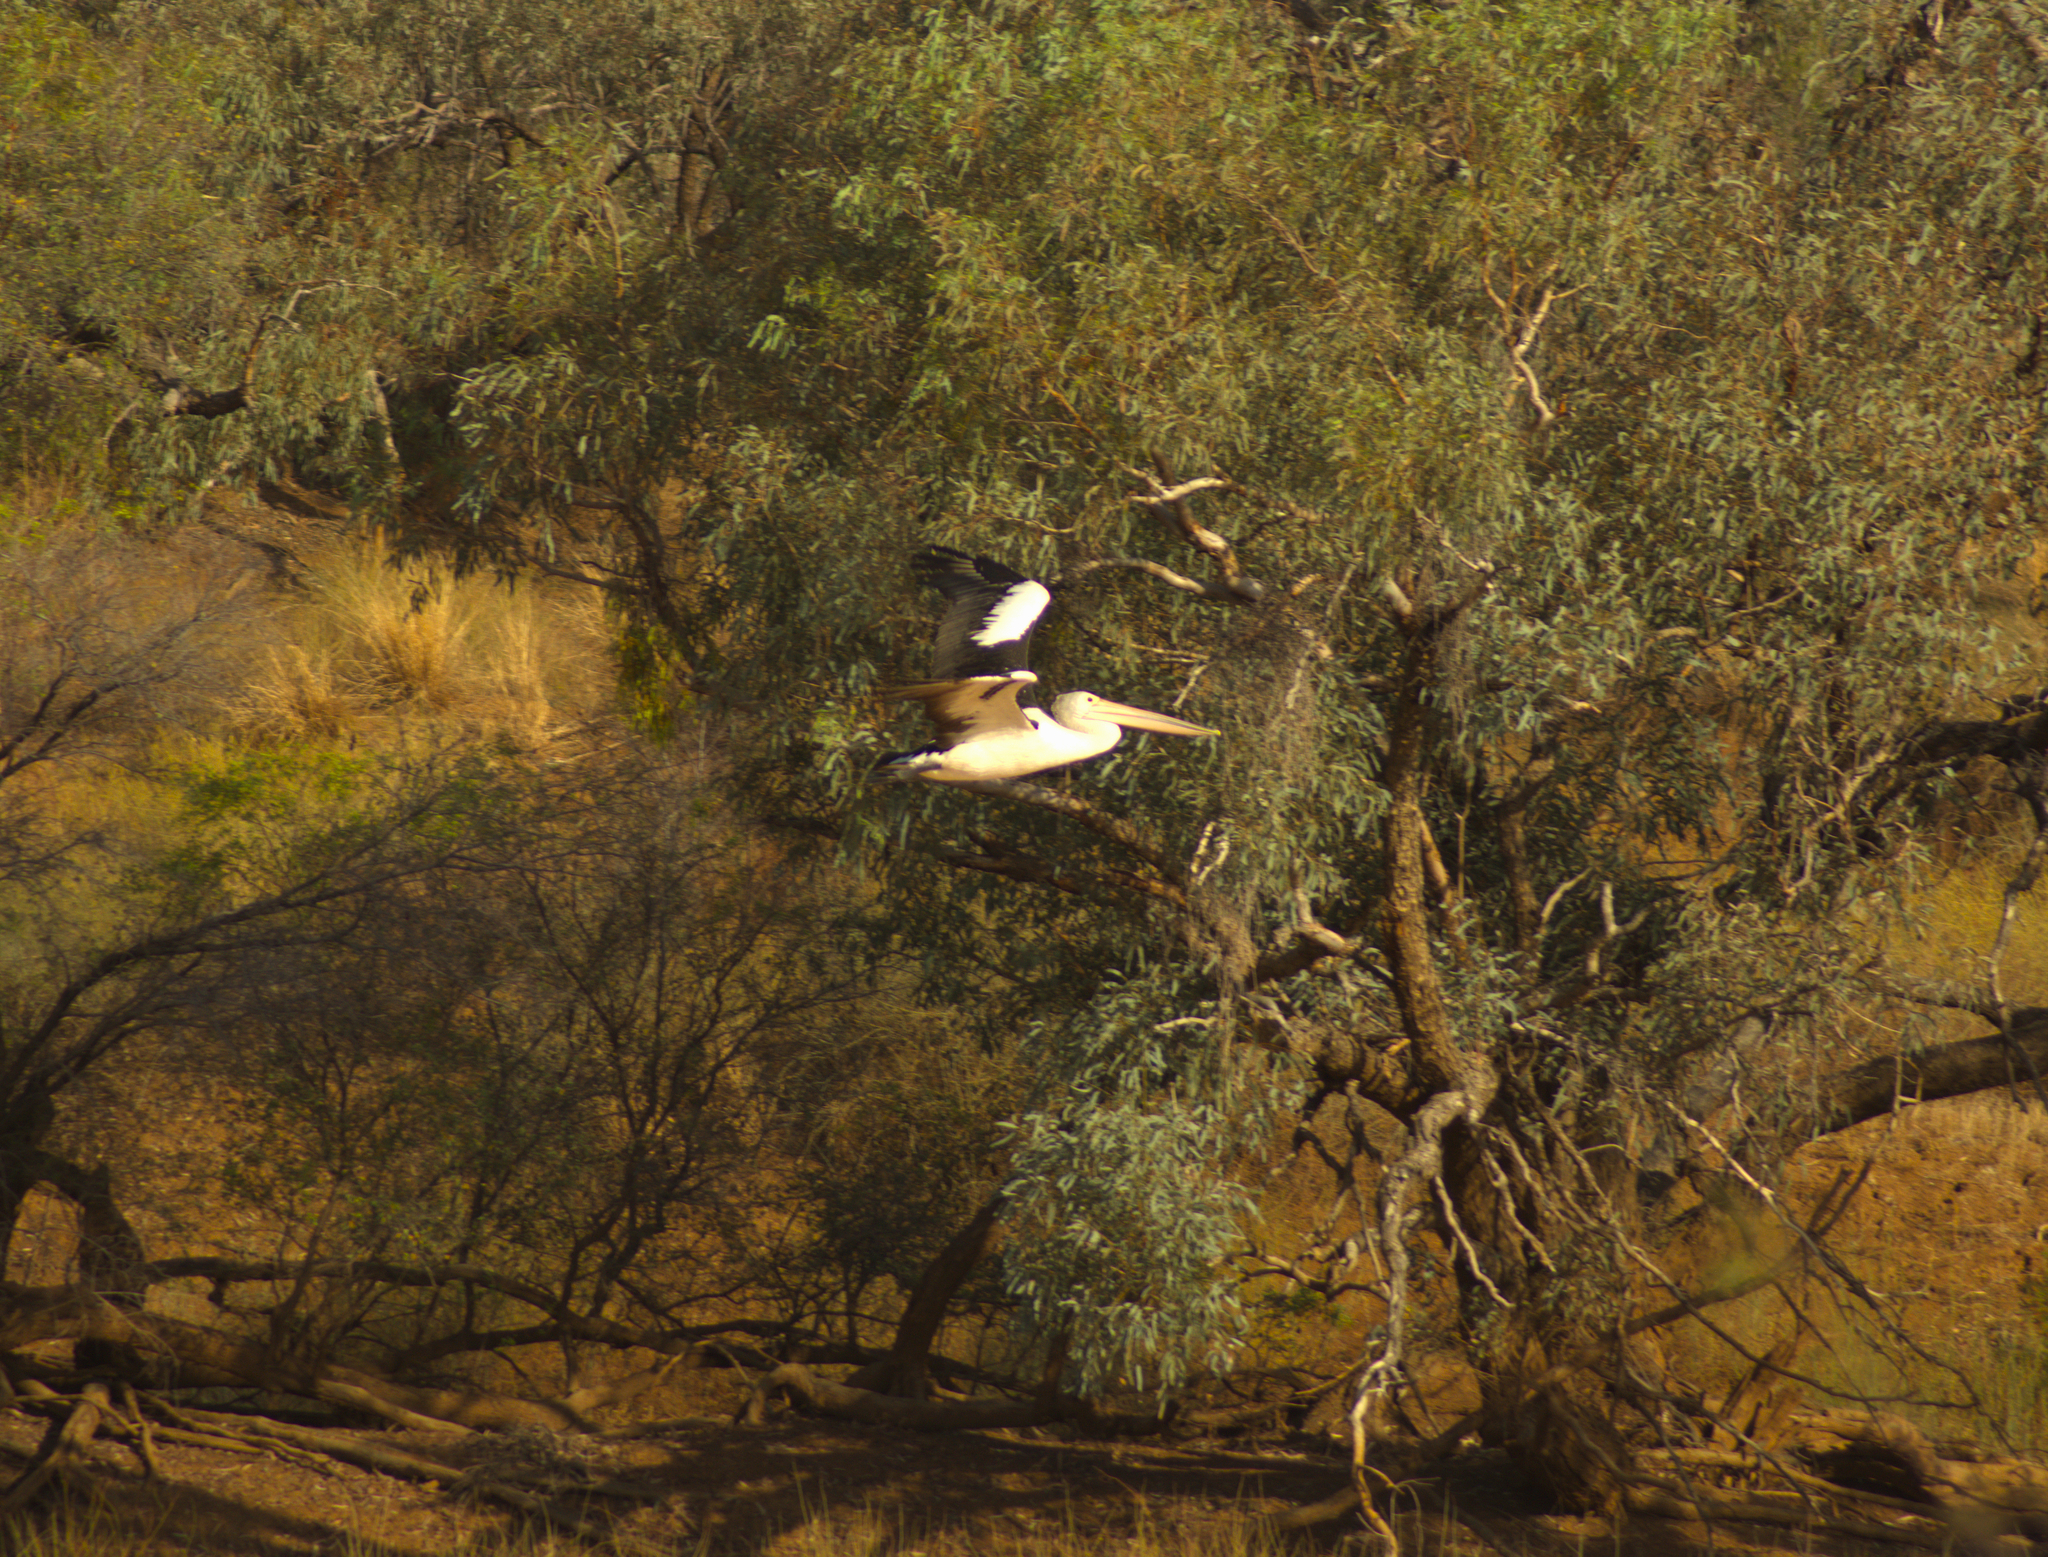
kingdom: Animalia
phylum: Chordata
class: Aves
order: Pelecaniformes
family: Pelecanidae
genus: Pelecanus
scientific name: Pelecanus conspicillatus
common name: Australian pelican
